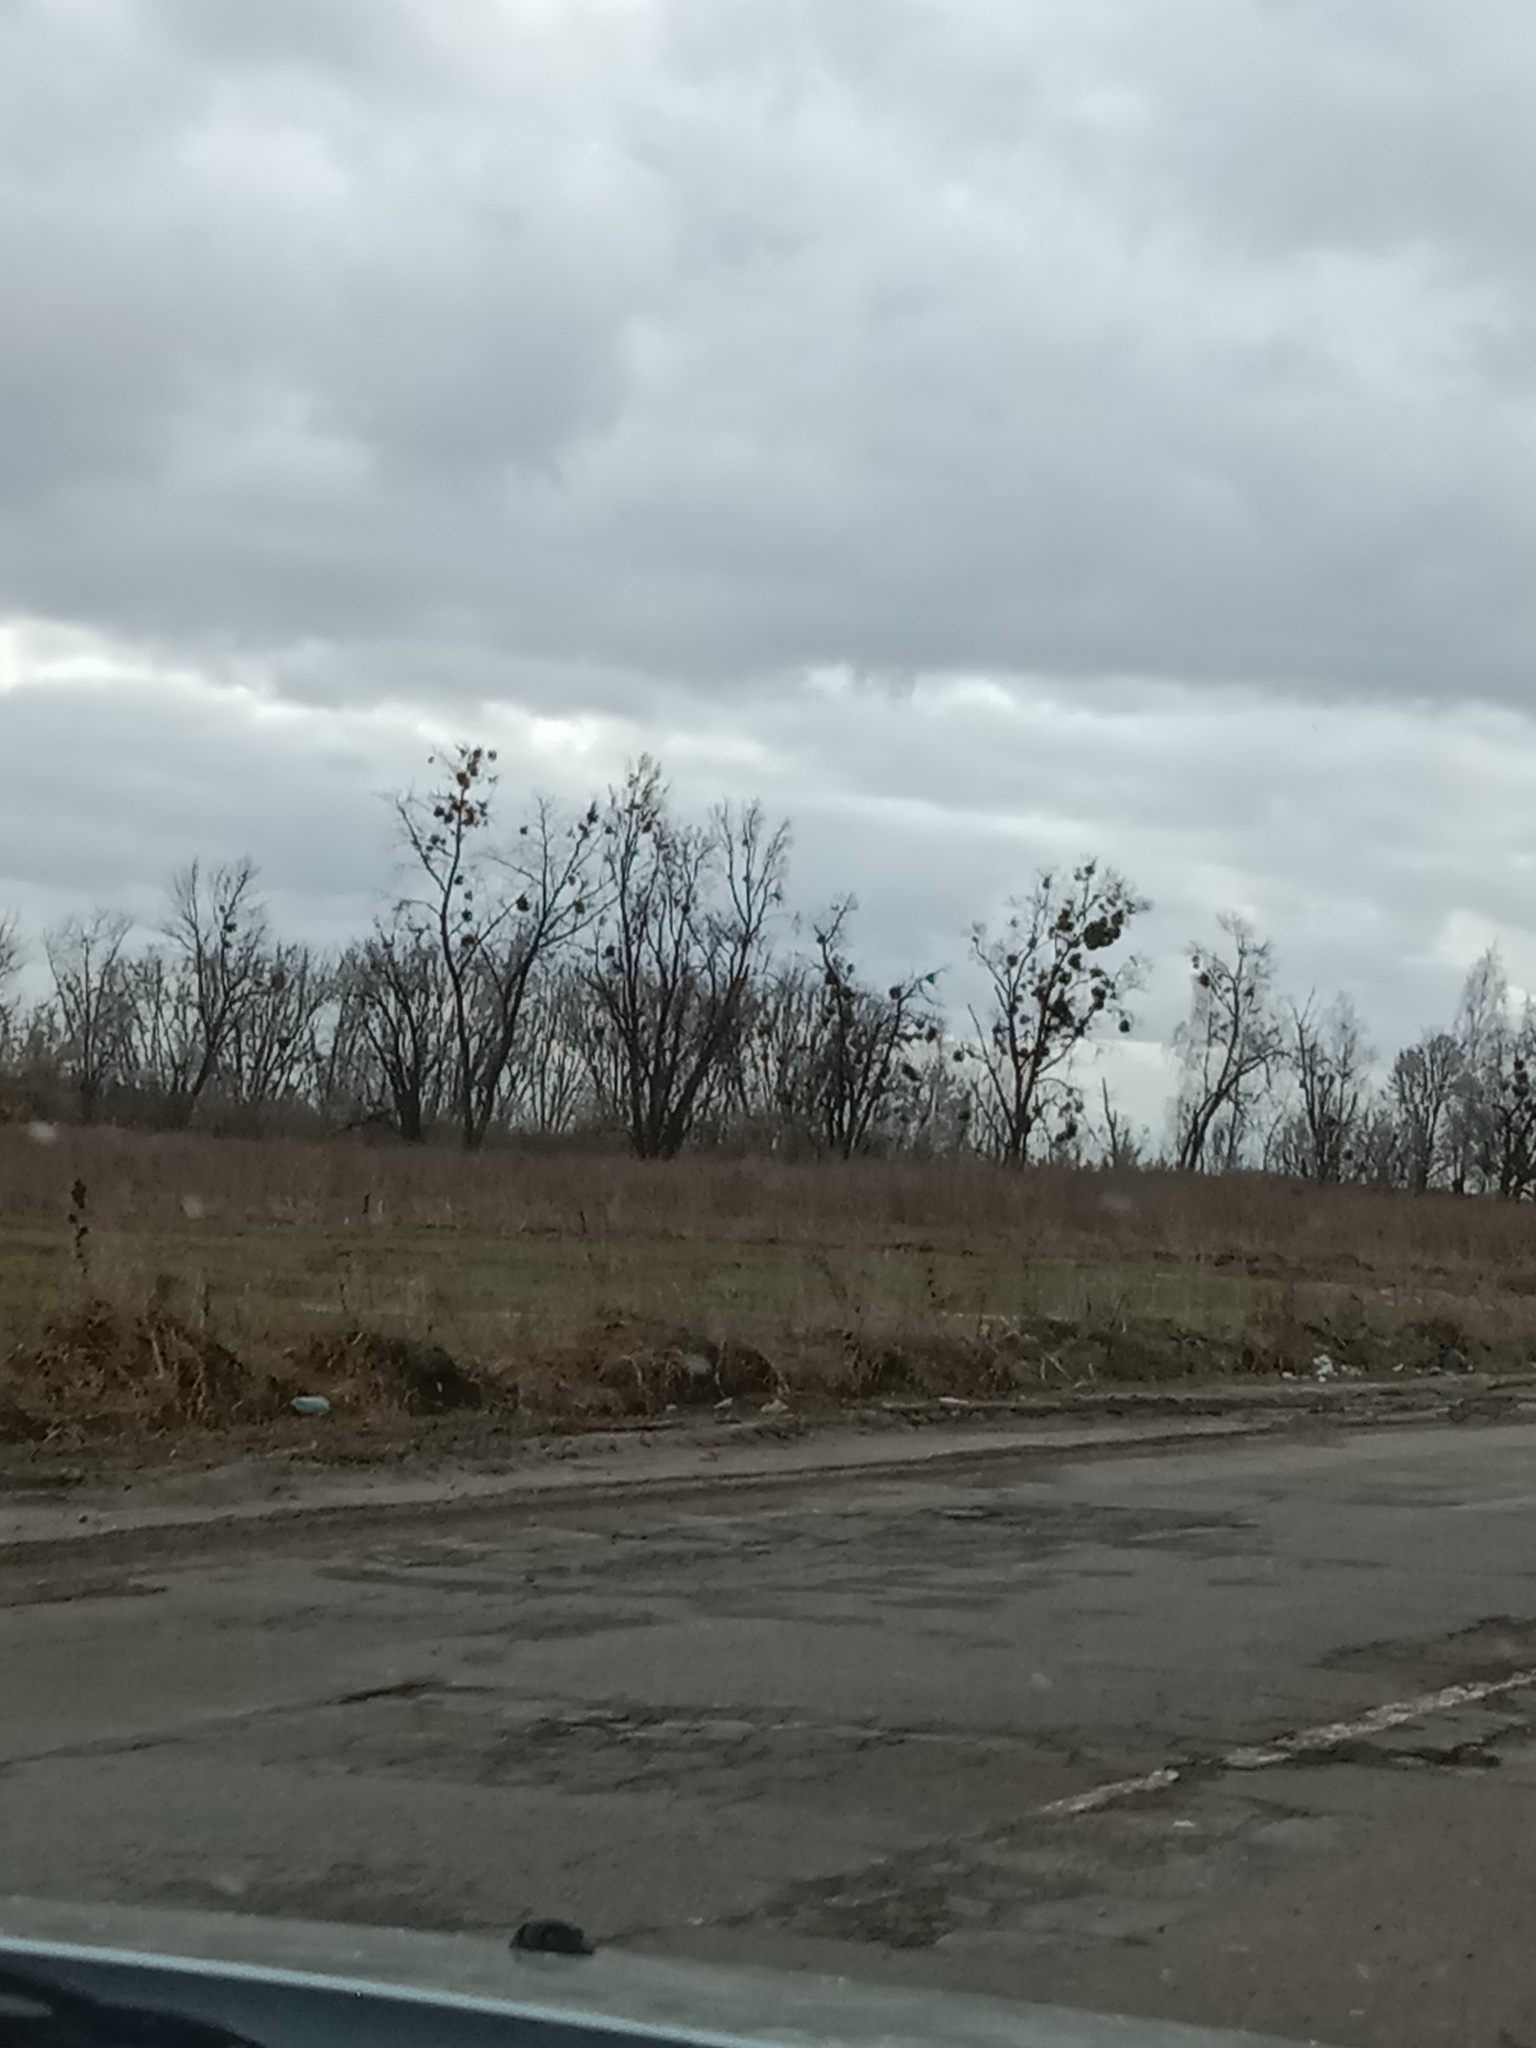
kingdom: Plantae
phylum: Tracheophyta
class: Magnoliopsida
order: Santalales
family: Viscaceae
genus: Viscum
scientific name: Viscum album
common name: Mistletoe
